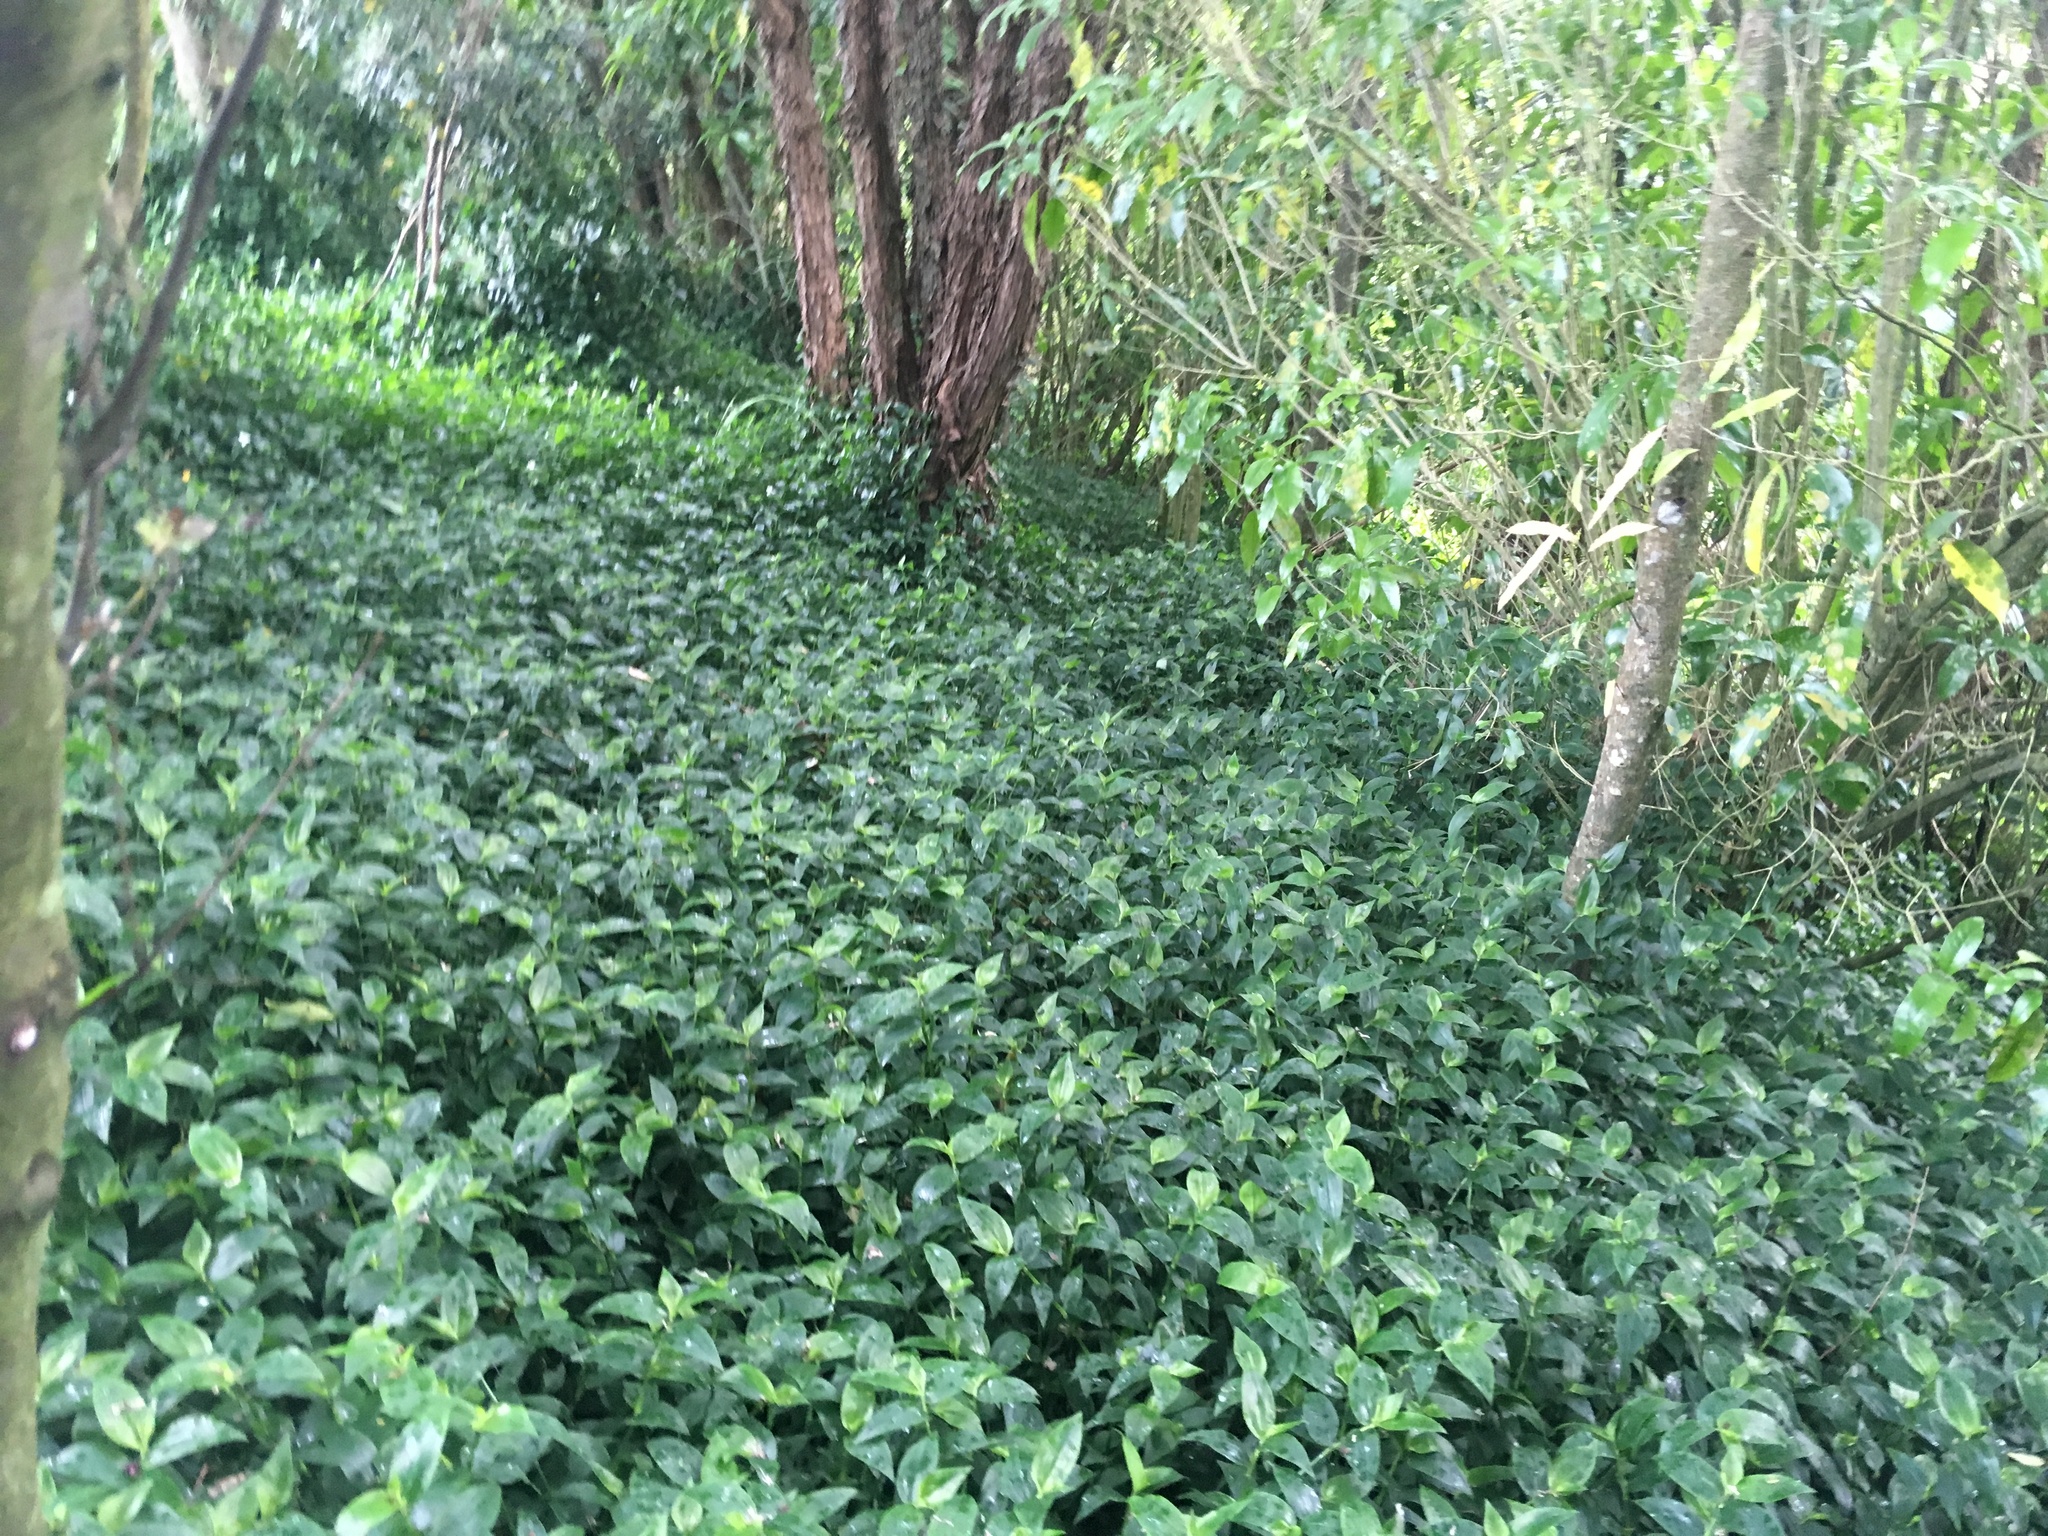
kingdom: Plantae
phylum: Tracheophyta
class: Liliopsida
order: Commelinales
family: Commelinaceae
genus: Tradescantia
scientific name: Tradescantia fluminensis
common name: Wandering-jew
